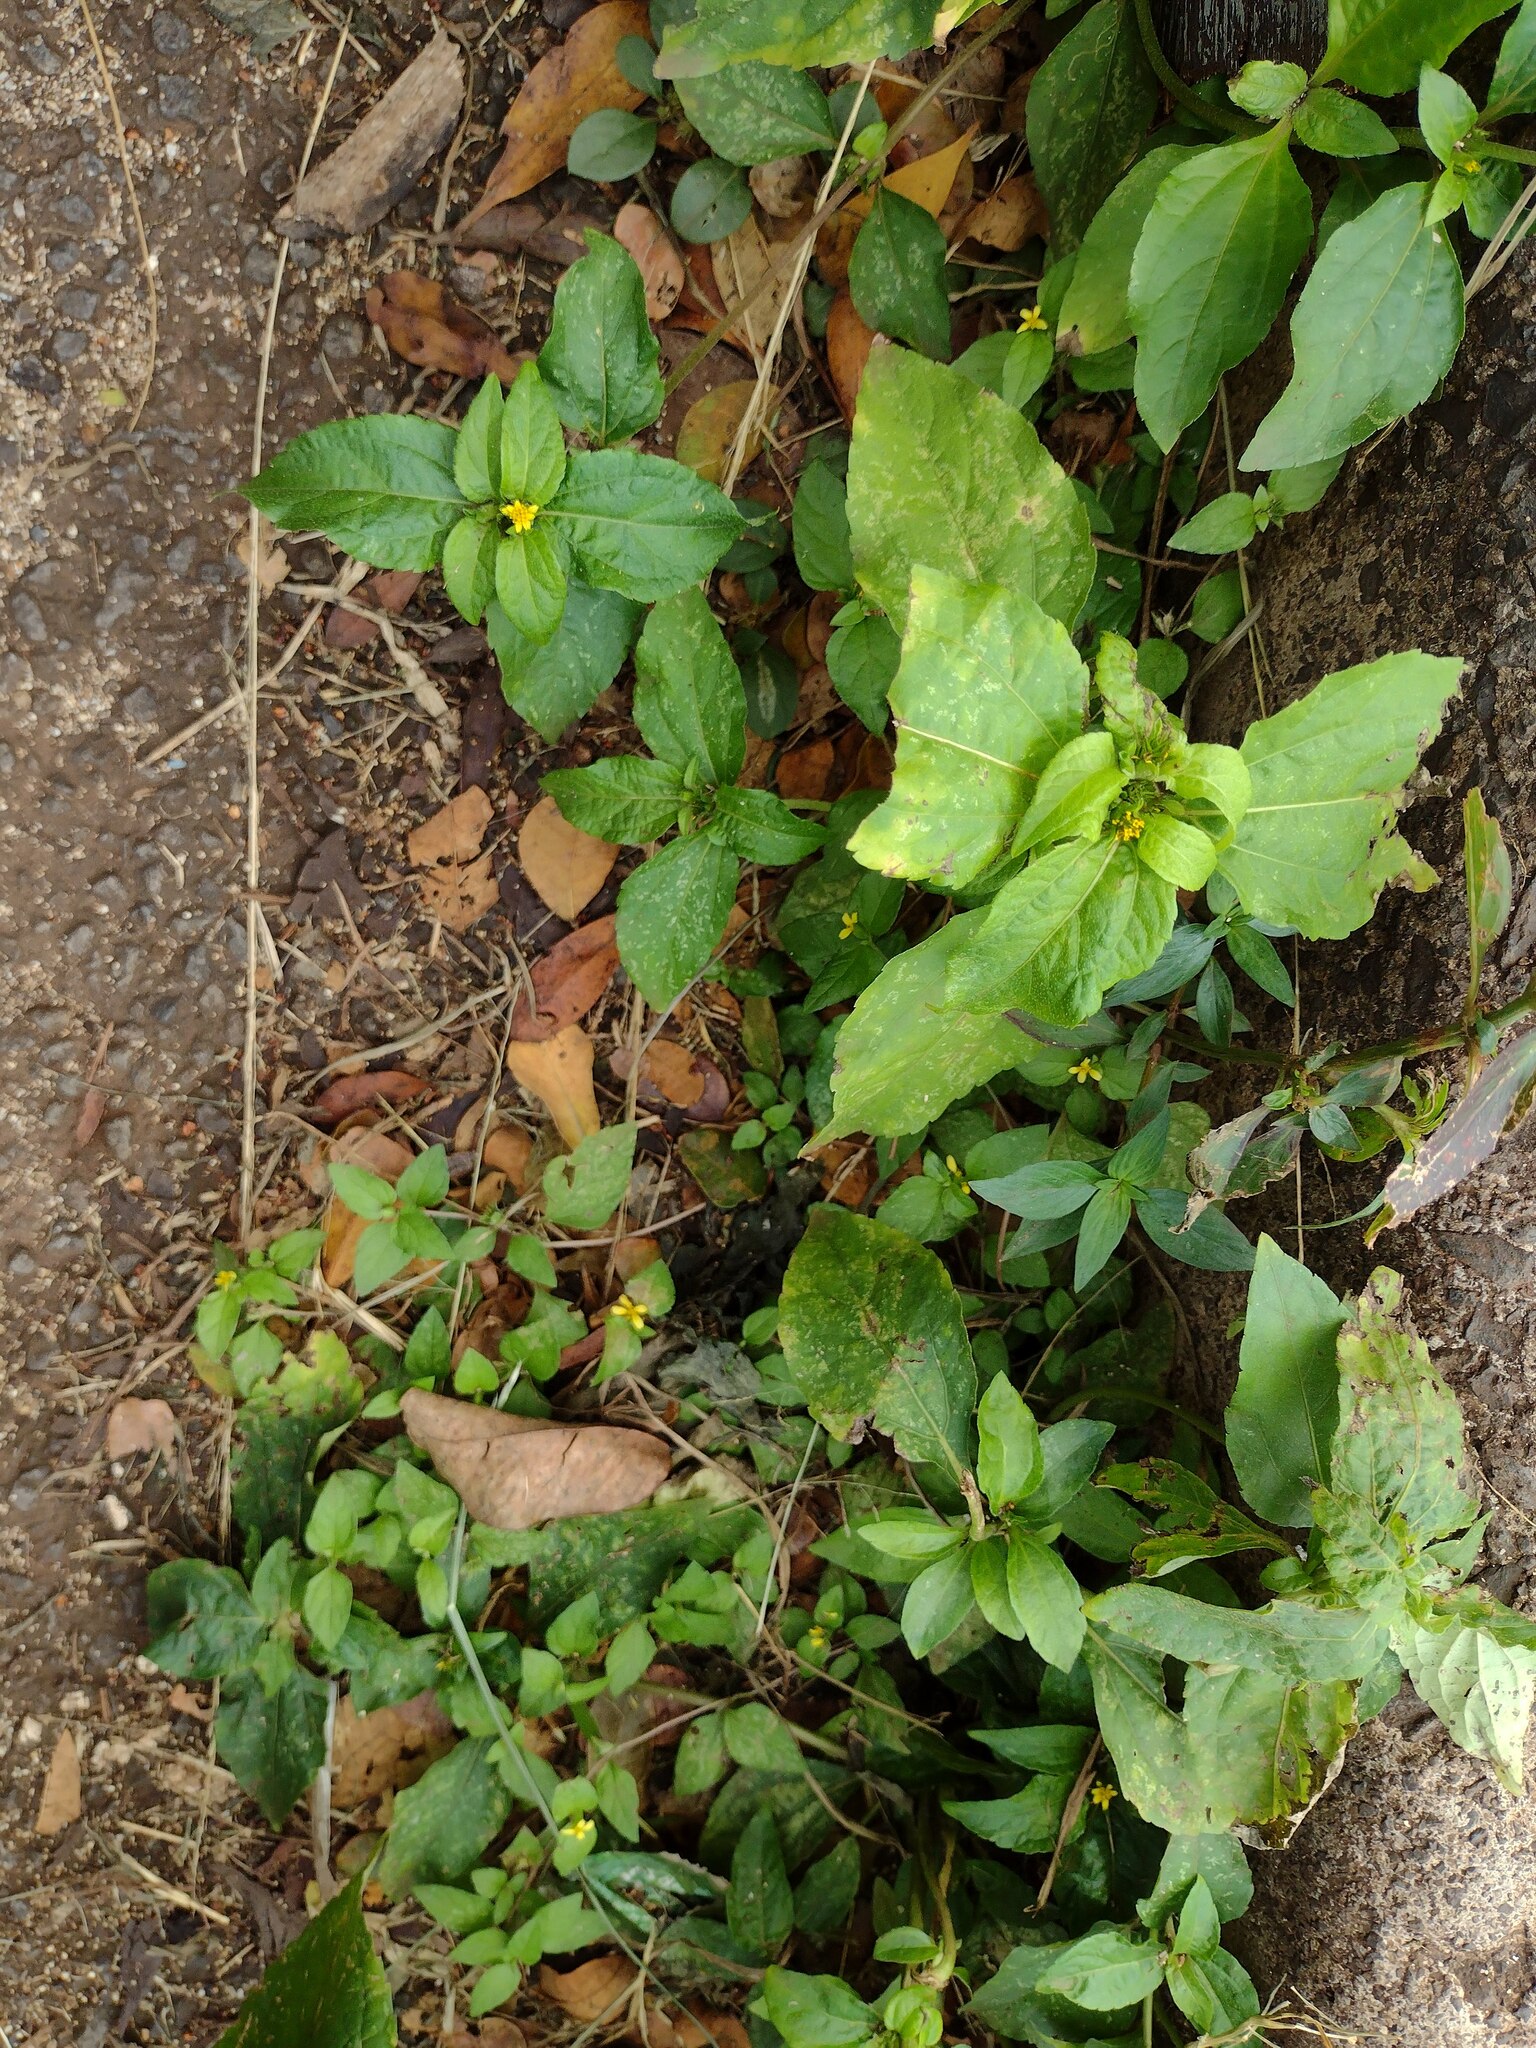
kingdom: Plantae
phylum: Tracheophyta
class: Magnoliopsida
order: Asterales
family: Asteraceae
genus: Synedrella
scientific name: Synedrella nodiflora
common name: Nodeweed
